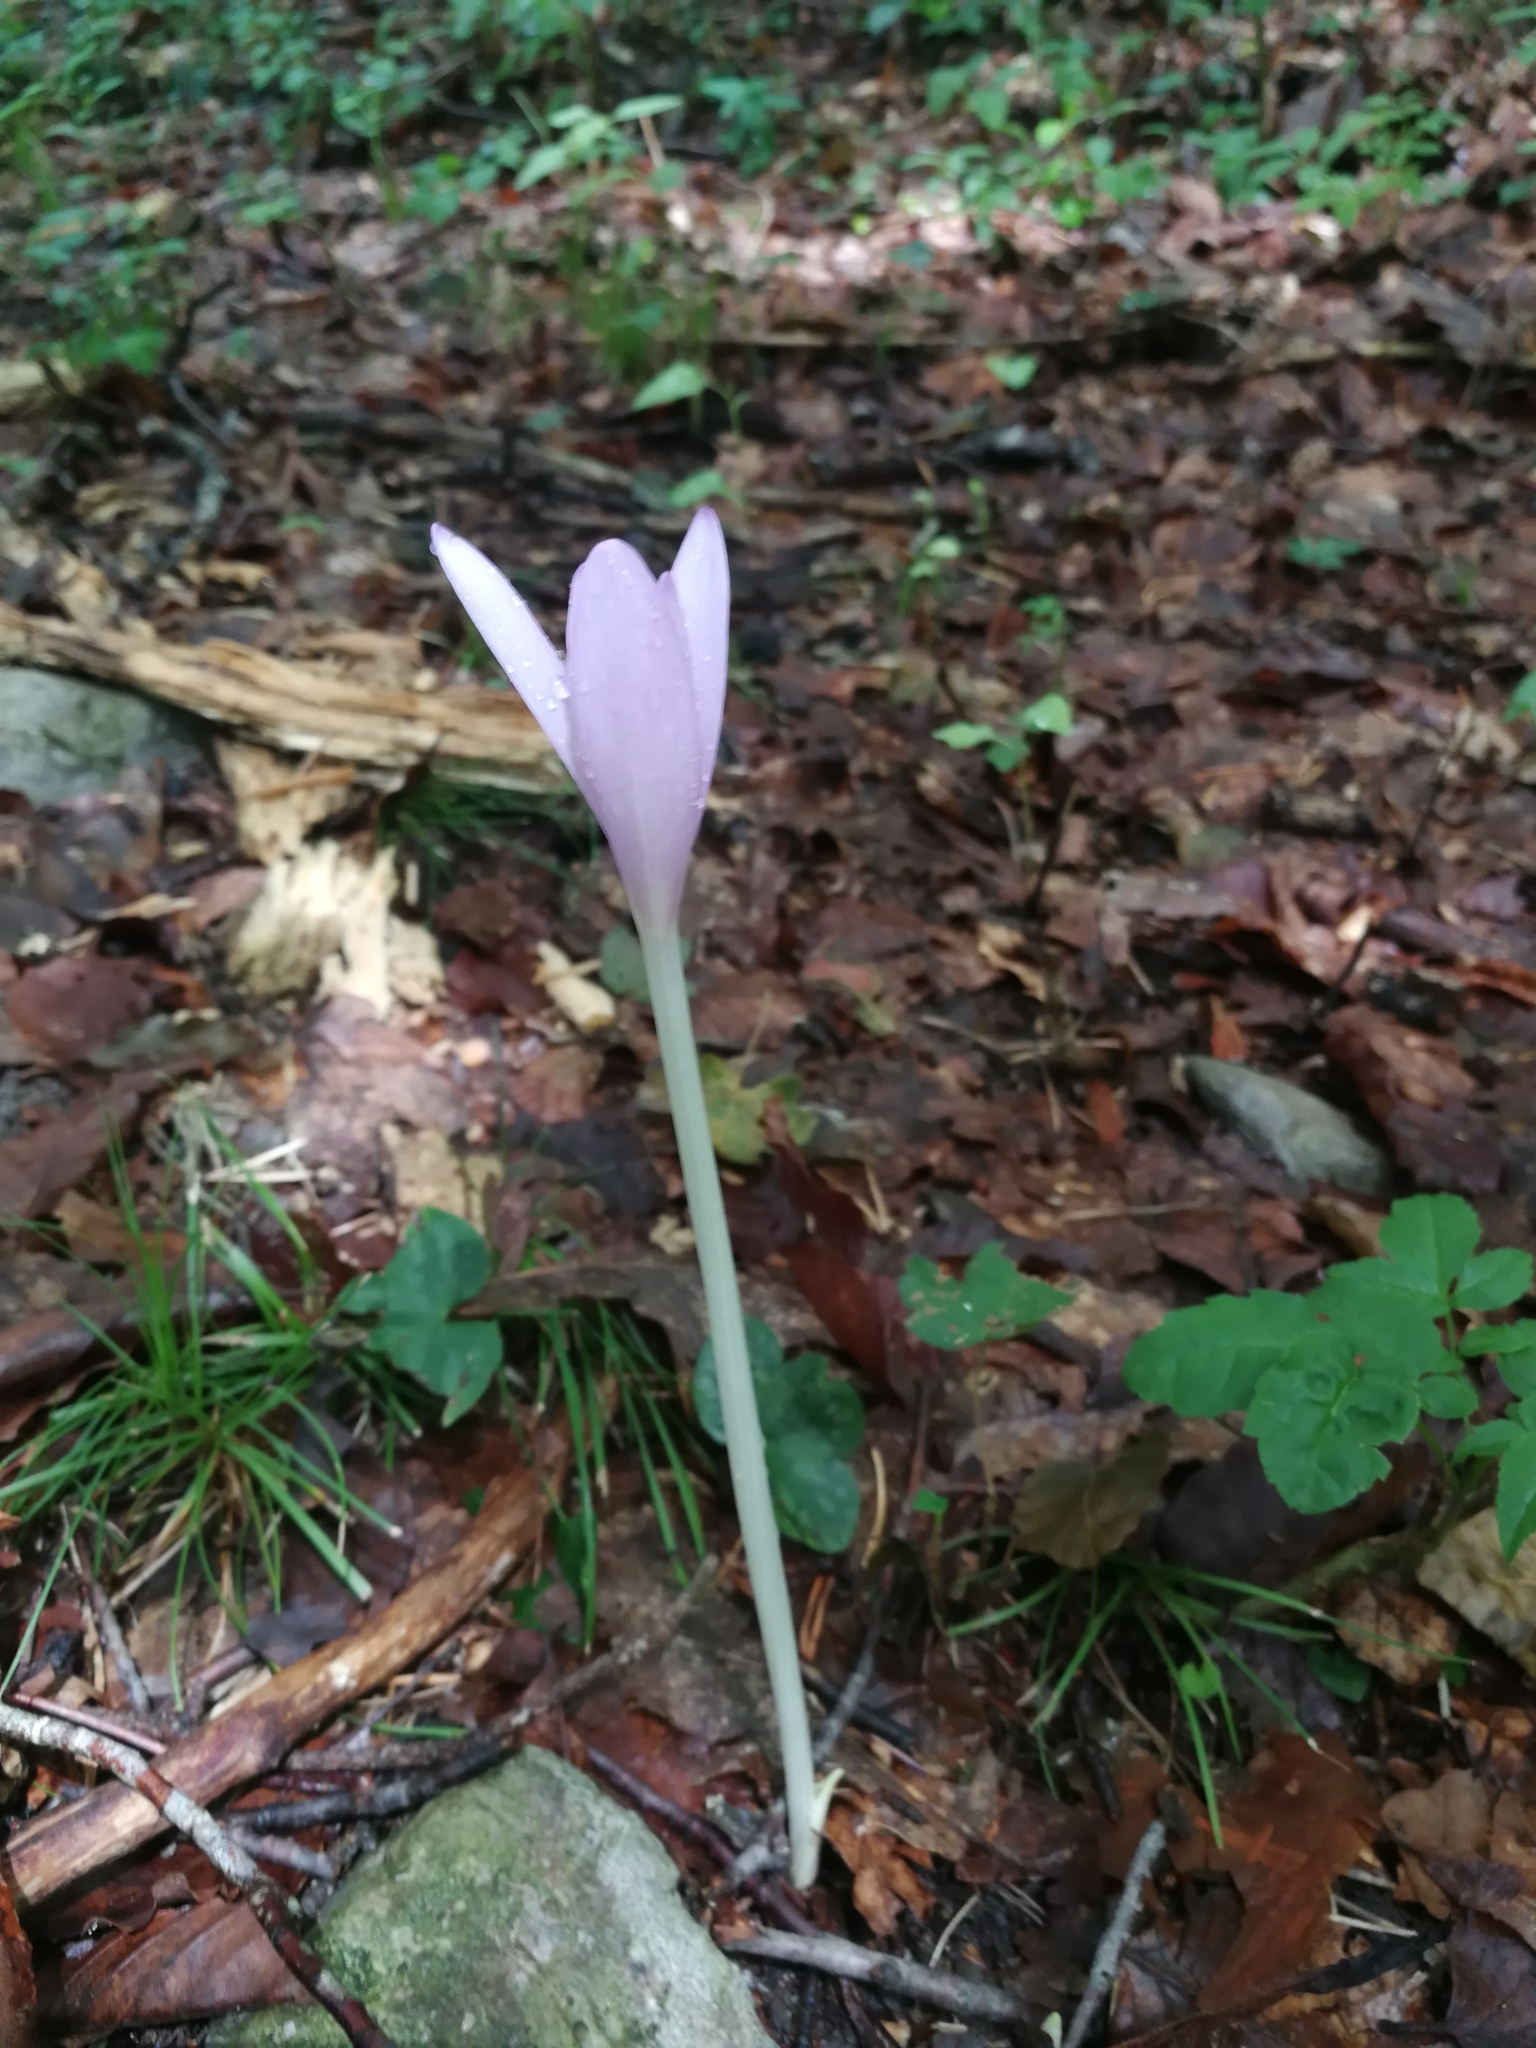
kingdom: Plantae
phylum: Tracheophyta
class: Liliopsida
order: Liliales
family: Colchicaceae
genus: Colchicum
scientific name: Colchicum autumnale
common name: Autumn crocus
